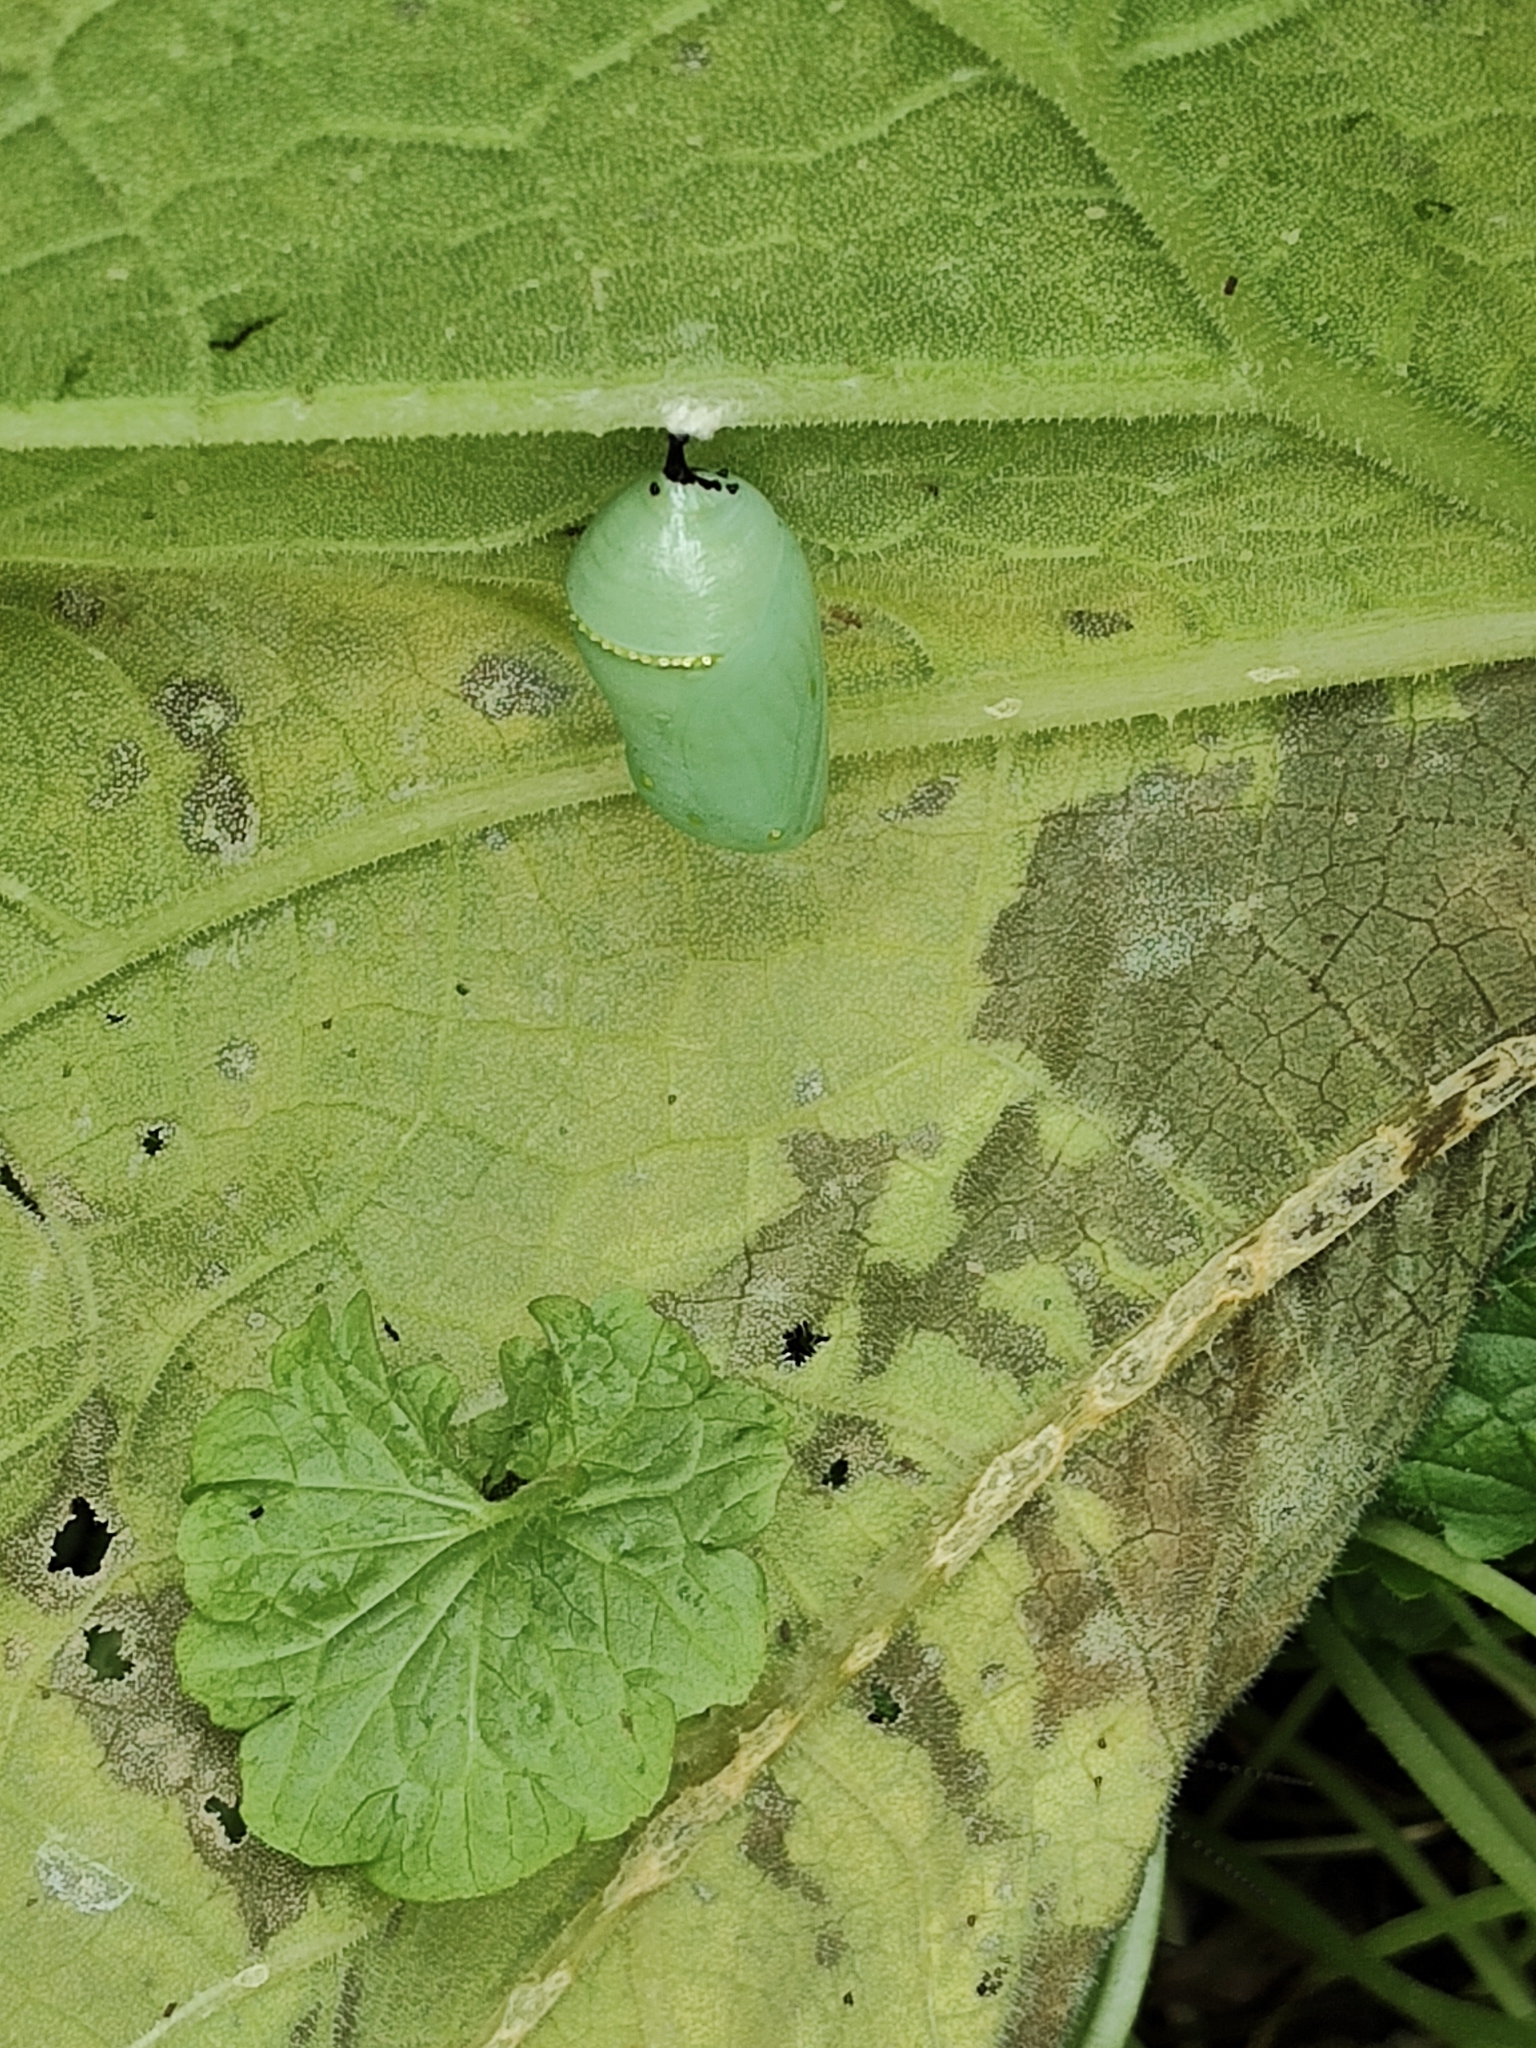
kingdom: Animalia
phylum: Arthropoda
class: Insecta
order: Lepidoptera
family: Nymphalidae
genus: Danaus
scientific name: Danaus plexippus
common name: Monarch
